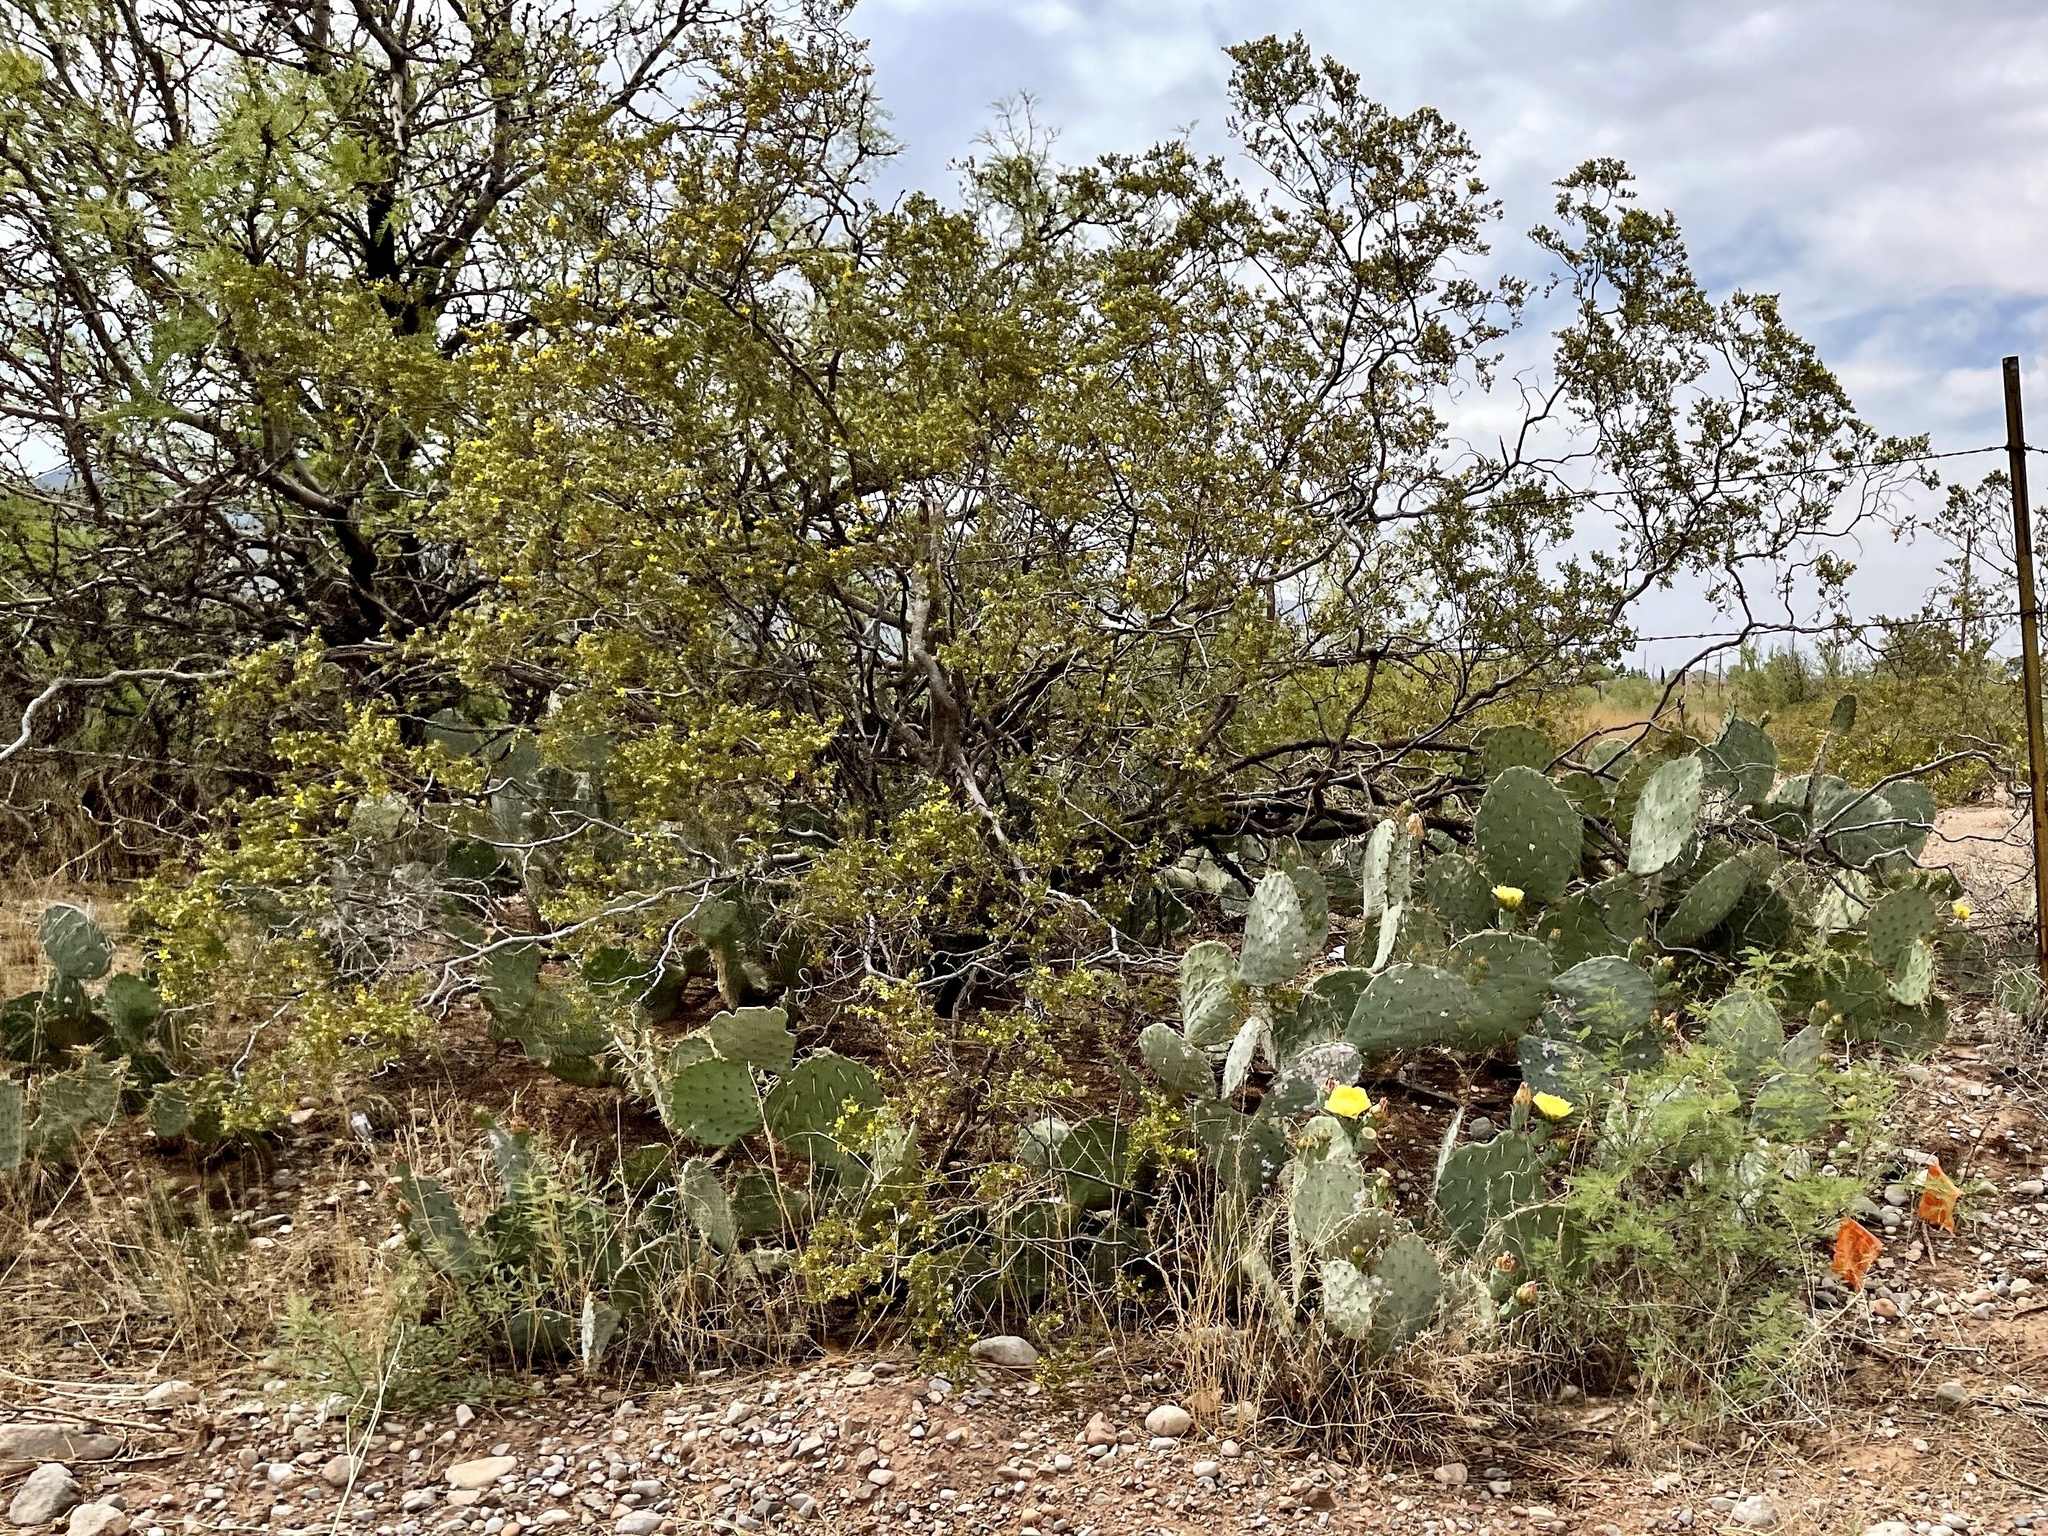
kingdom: Plantae
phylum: Tracheophyta
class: Magnoliopsida
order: Zygophyllales
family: Zygophyllaceae
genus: Larrea
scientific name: Larrea tridentata
